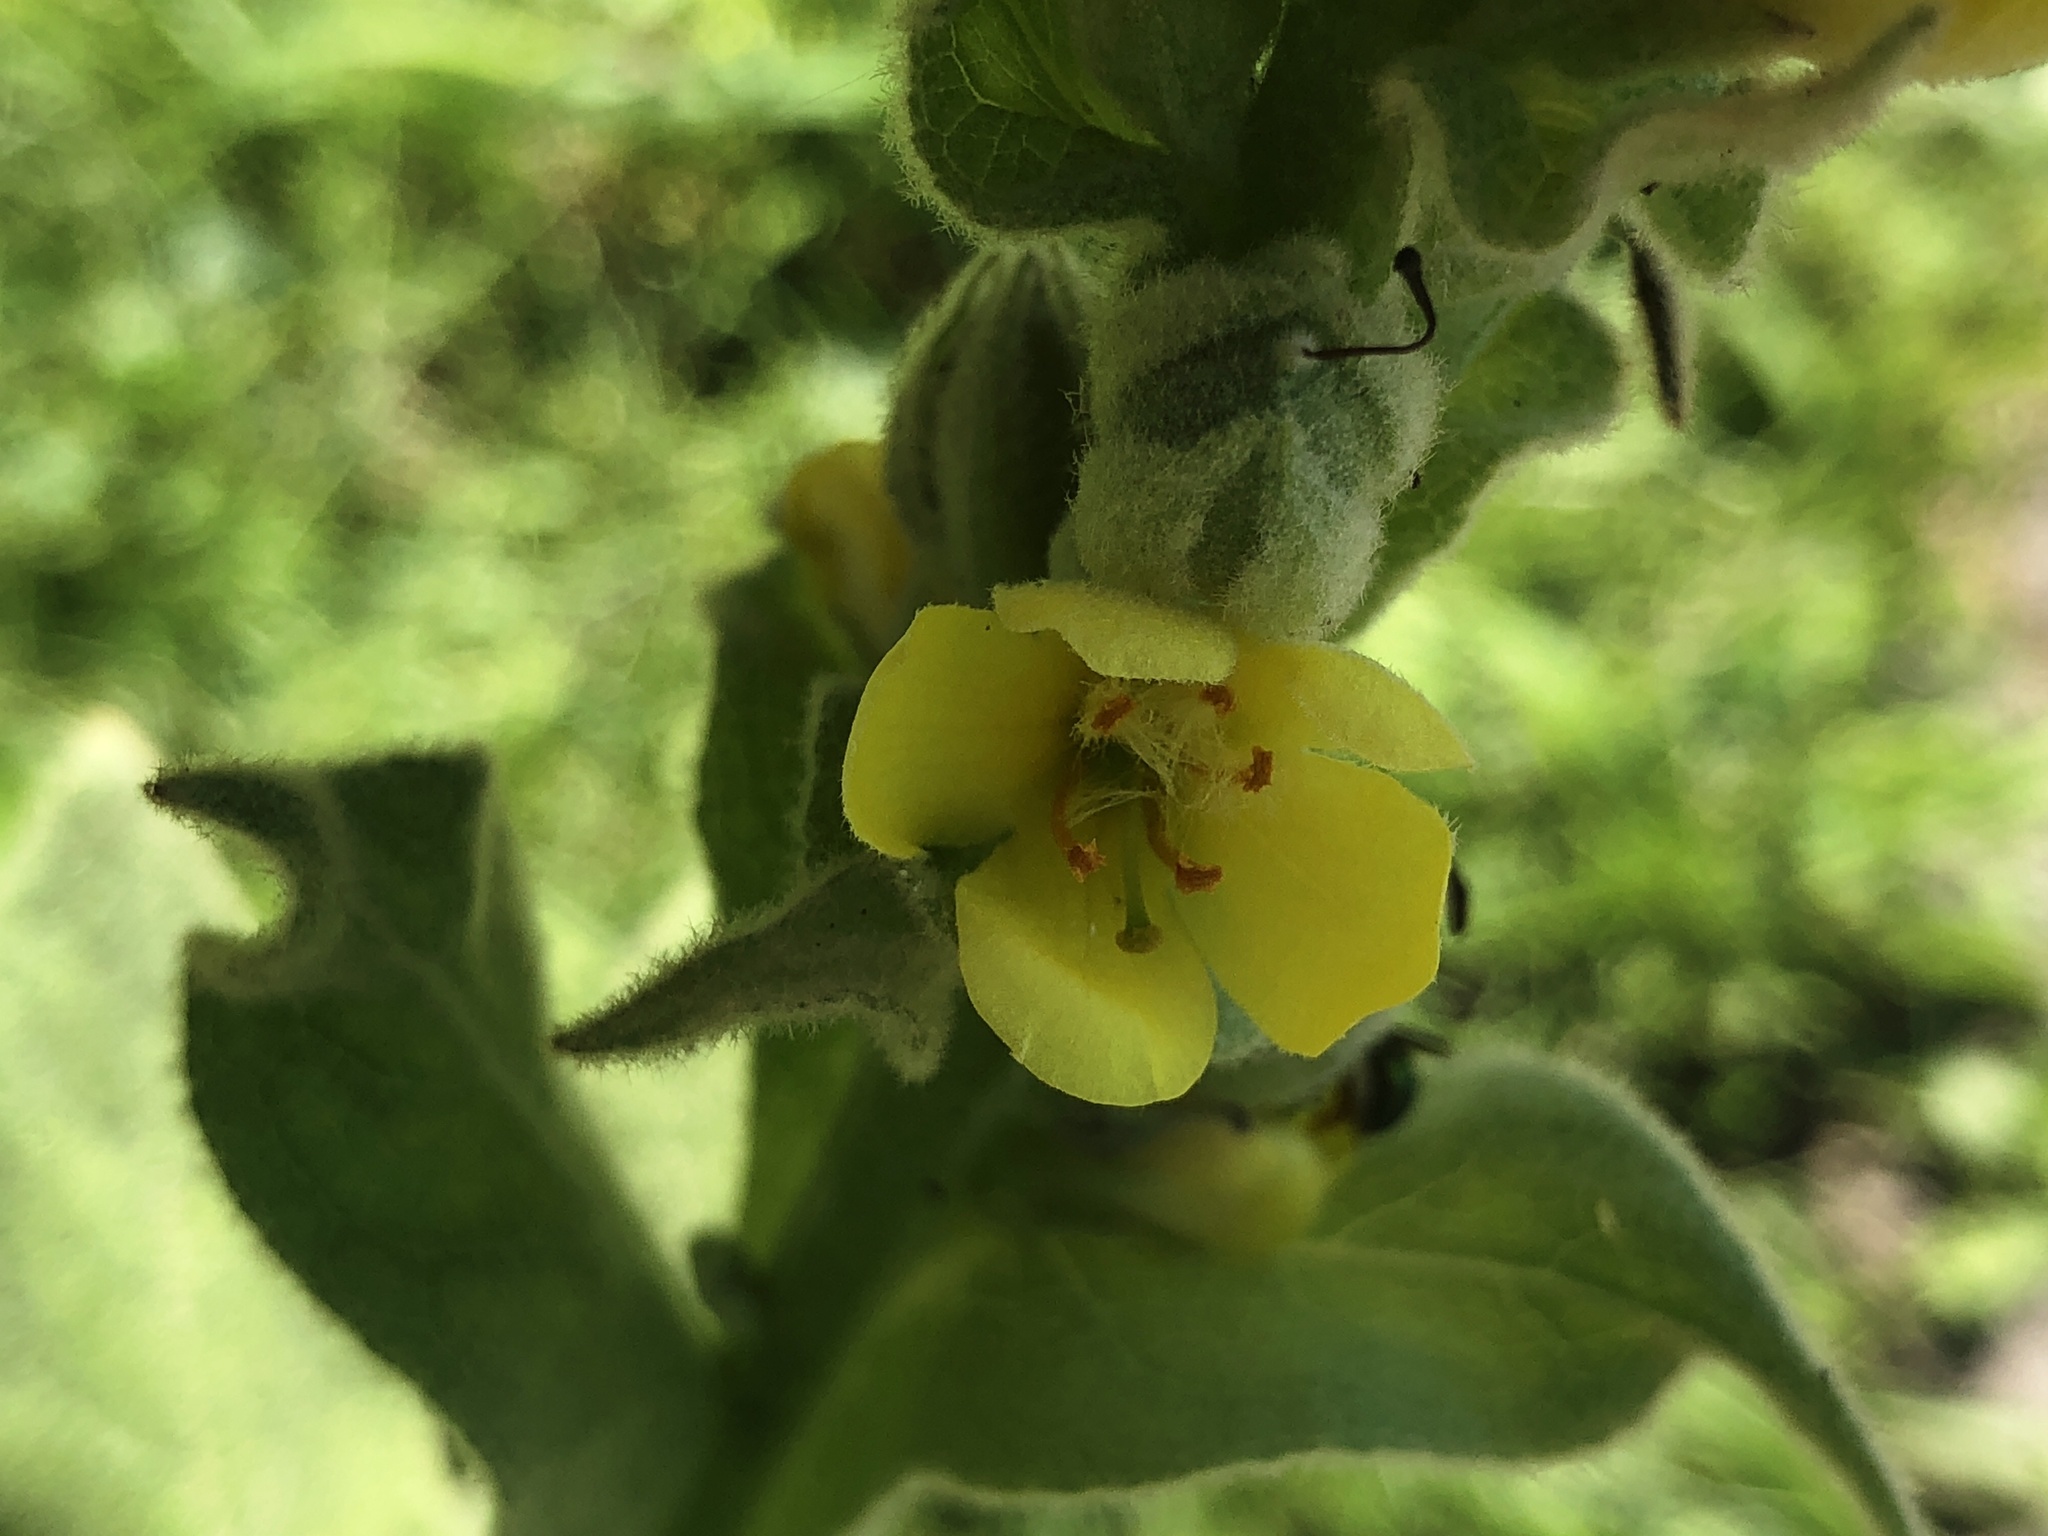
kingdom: Plantae
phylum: Tracheophyta
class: Magnoliopsida
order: Lamiales
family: Scrophulariaceae
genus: Verbascum
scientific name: Verbascum thapsus
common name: Common mullein
